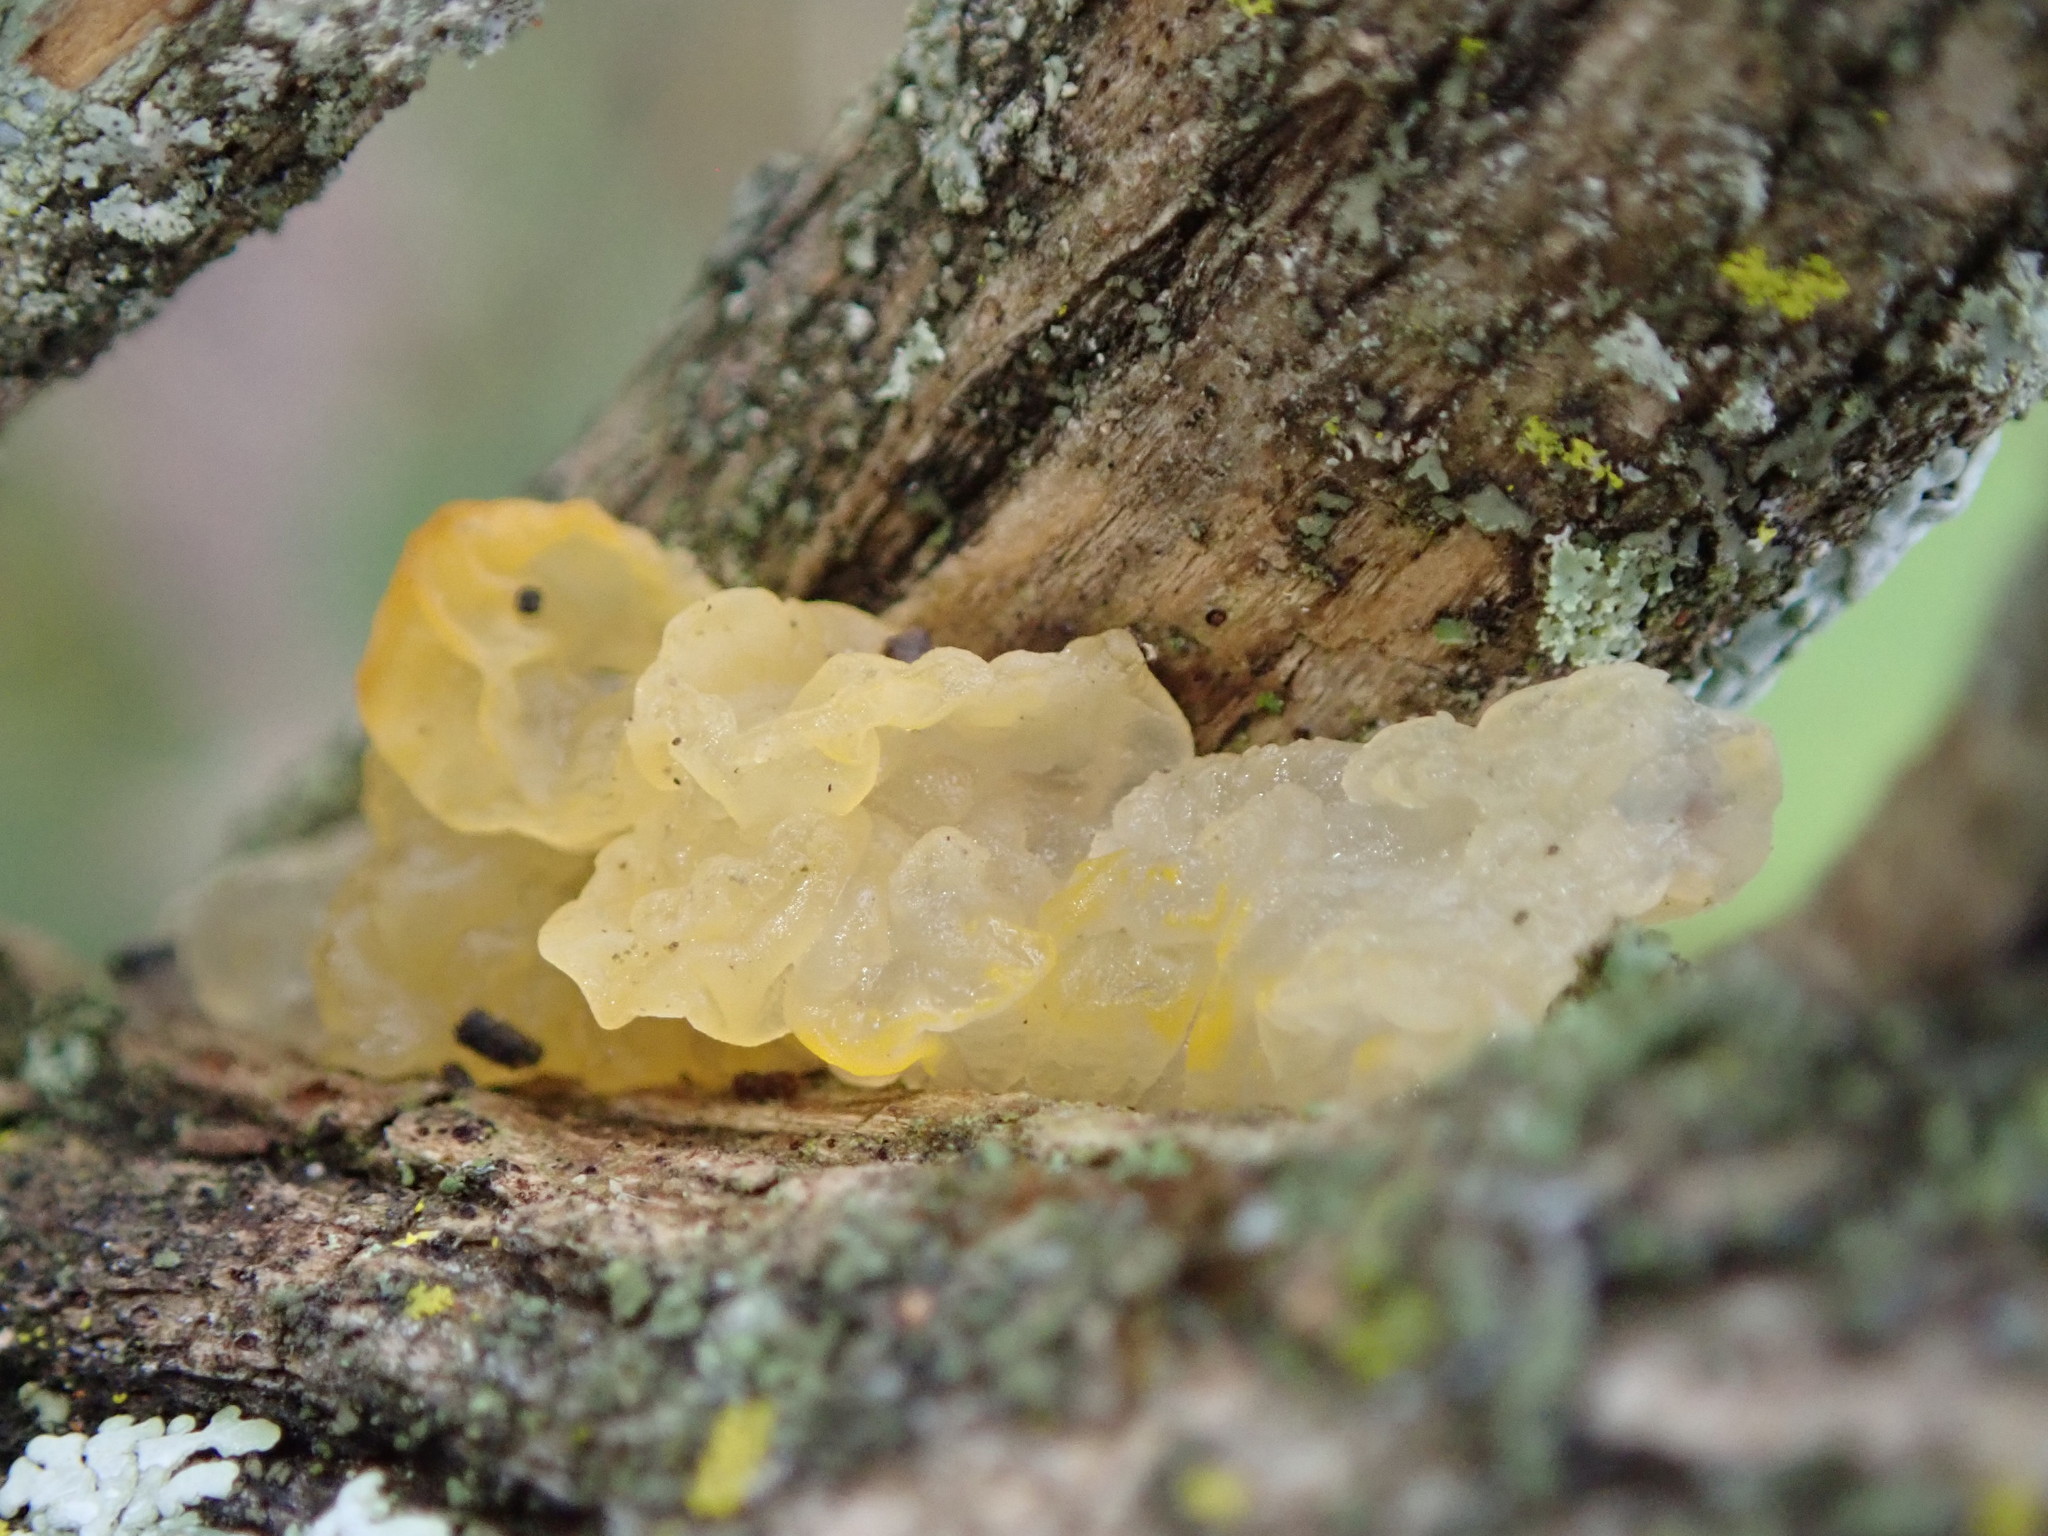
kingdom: Fungi
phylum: Basidiomycota
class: Tremellomycetes
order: Tremellales
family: Tremellaceae
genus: Tremella
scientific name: Tremella mesenterica
